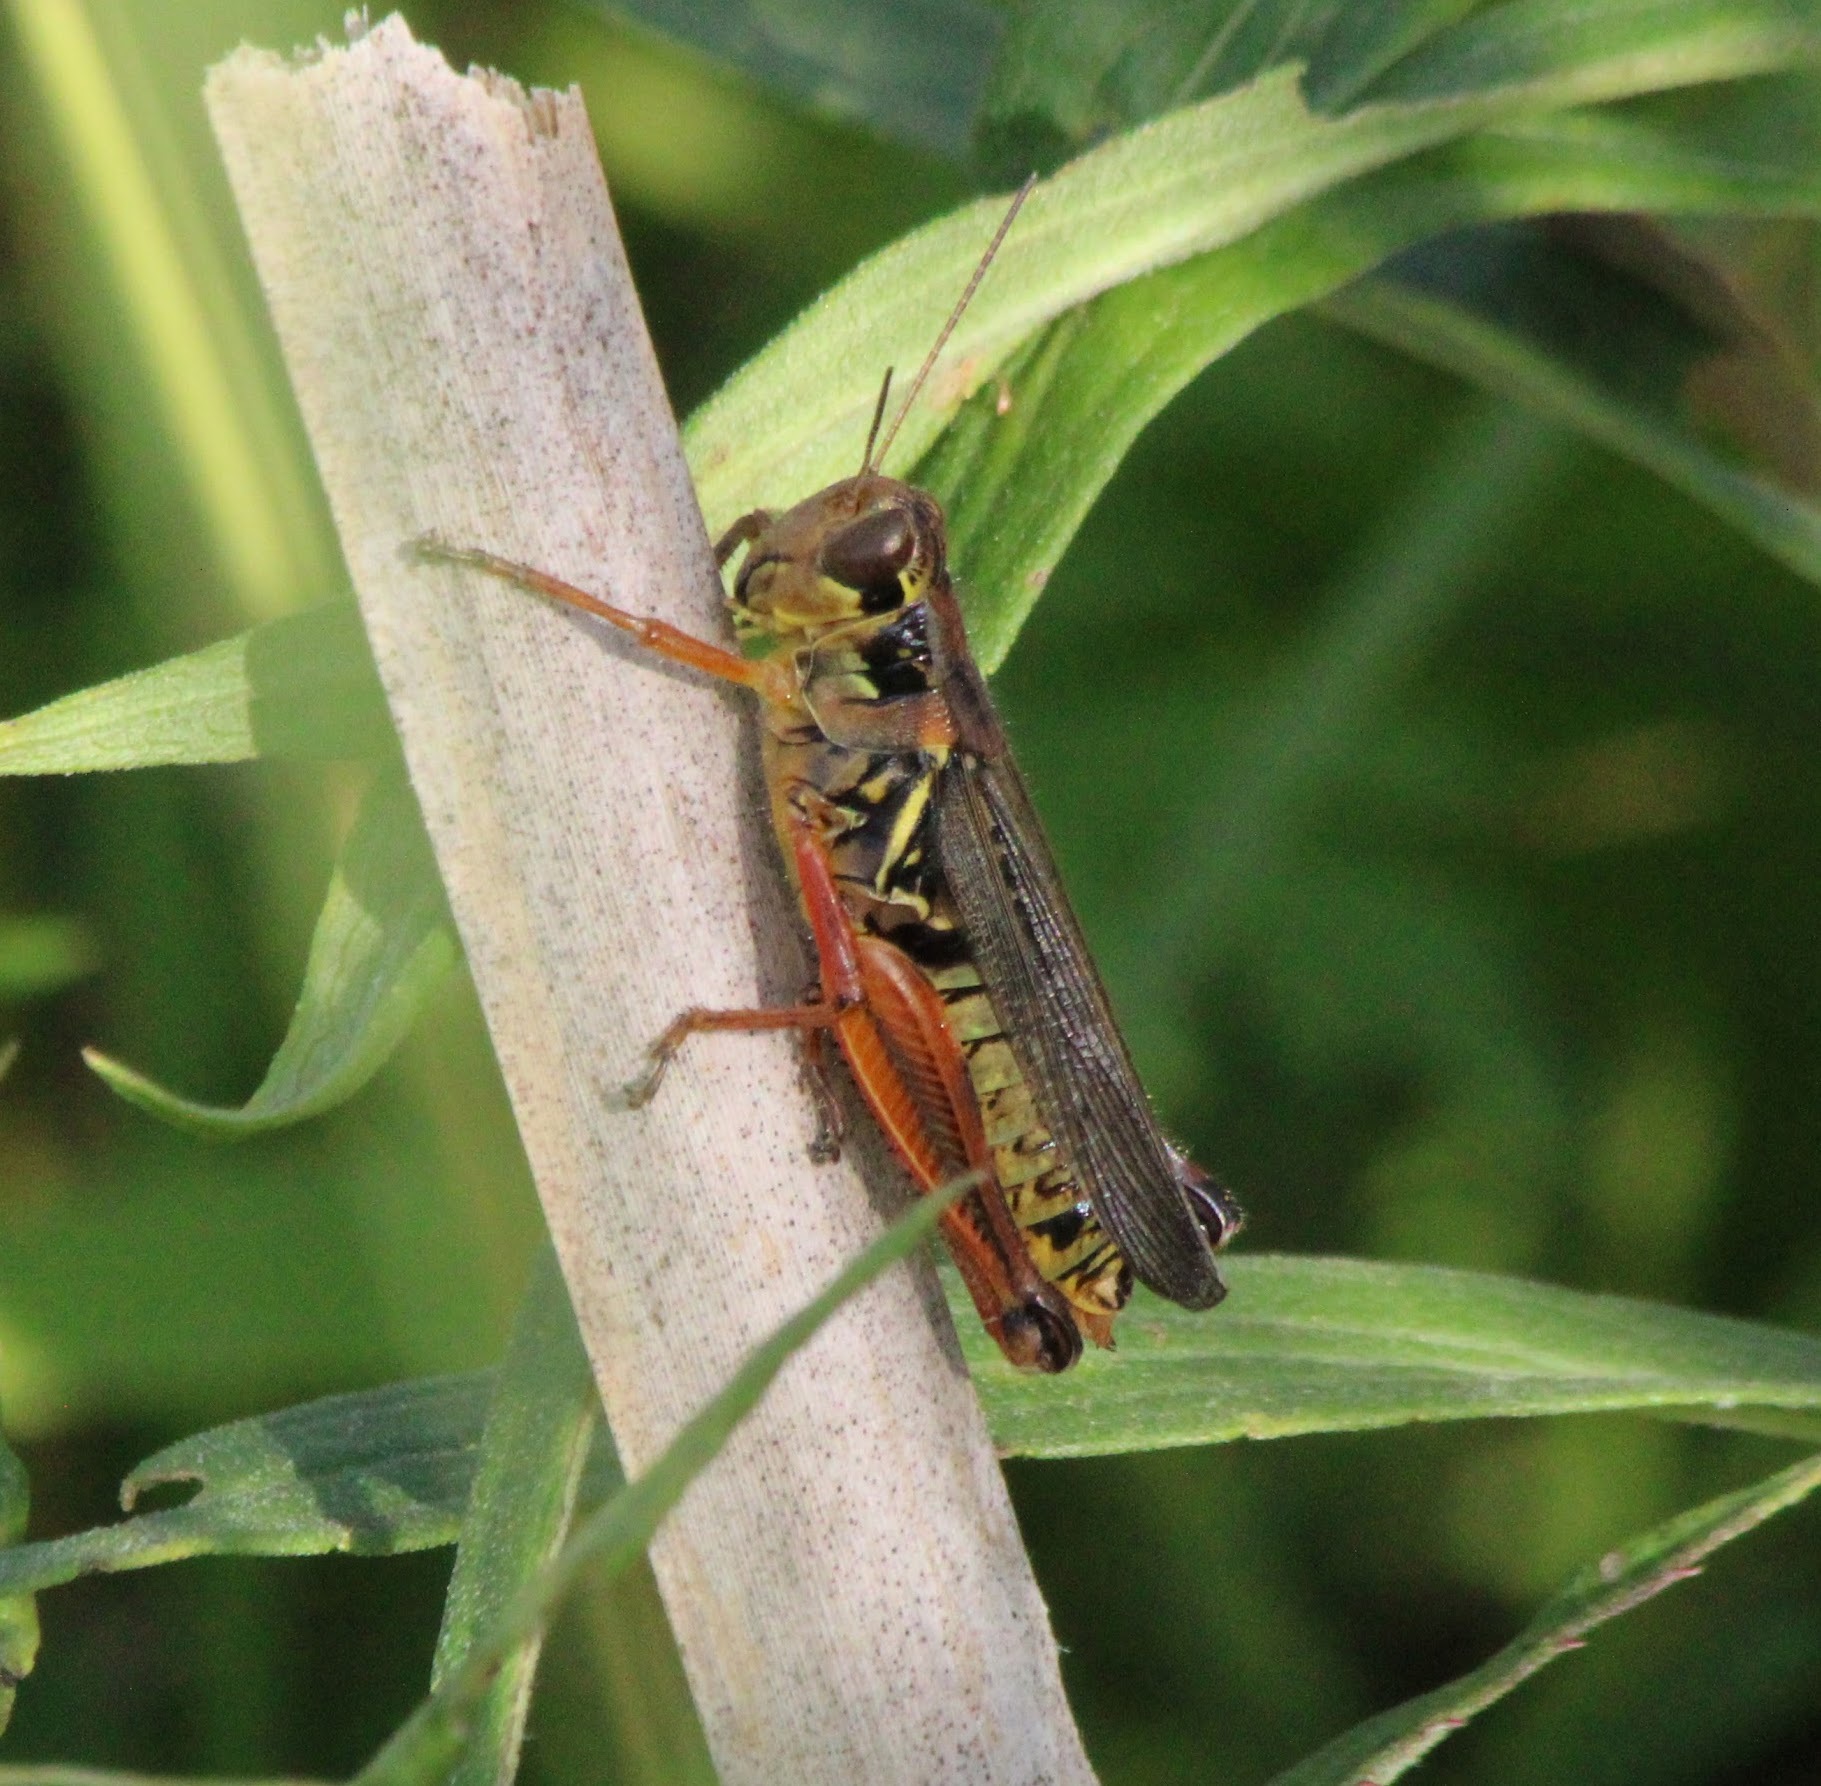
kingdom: Animalia
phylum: Arthropoda
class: Insecta
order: Orthoptera
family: Acrididae
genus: Melanoplus
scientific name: Melanoplus femurrubrum
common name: Red-legged grasshopper
